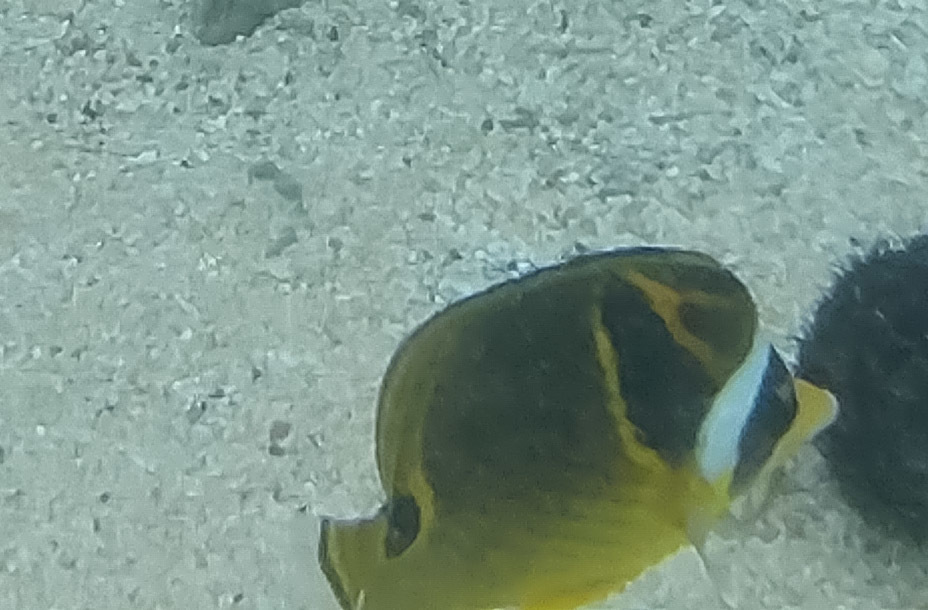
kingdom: Animalia
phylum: Chordata
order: Perciformes
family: Chaetodontidae
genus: Chaetodon
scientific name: Chaetodon lunula
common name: Raccoon butterflyfish
